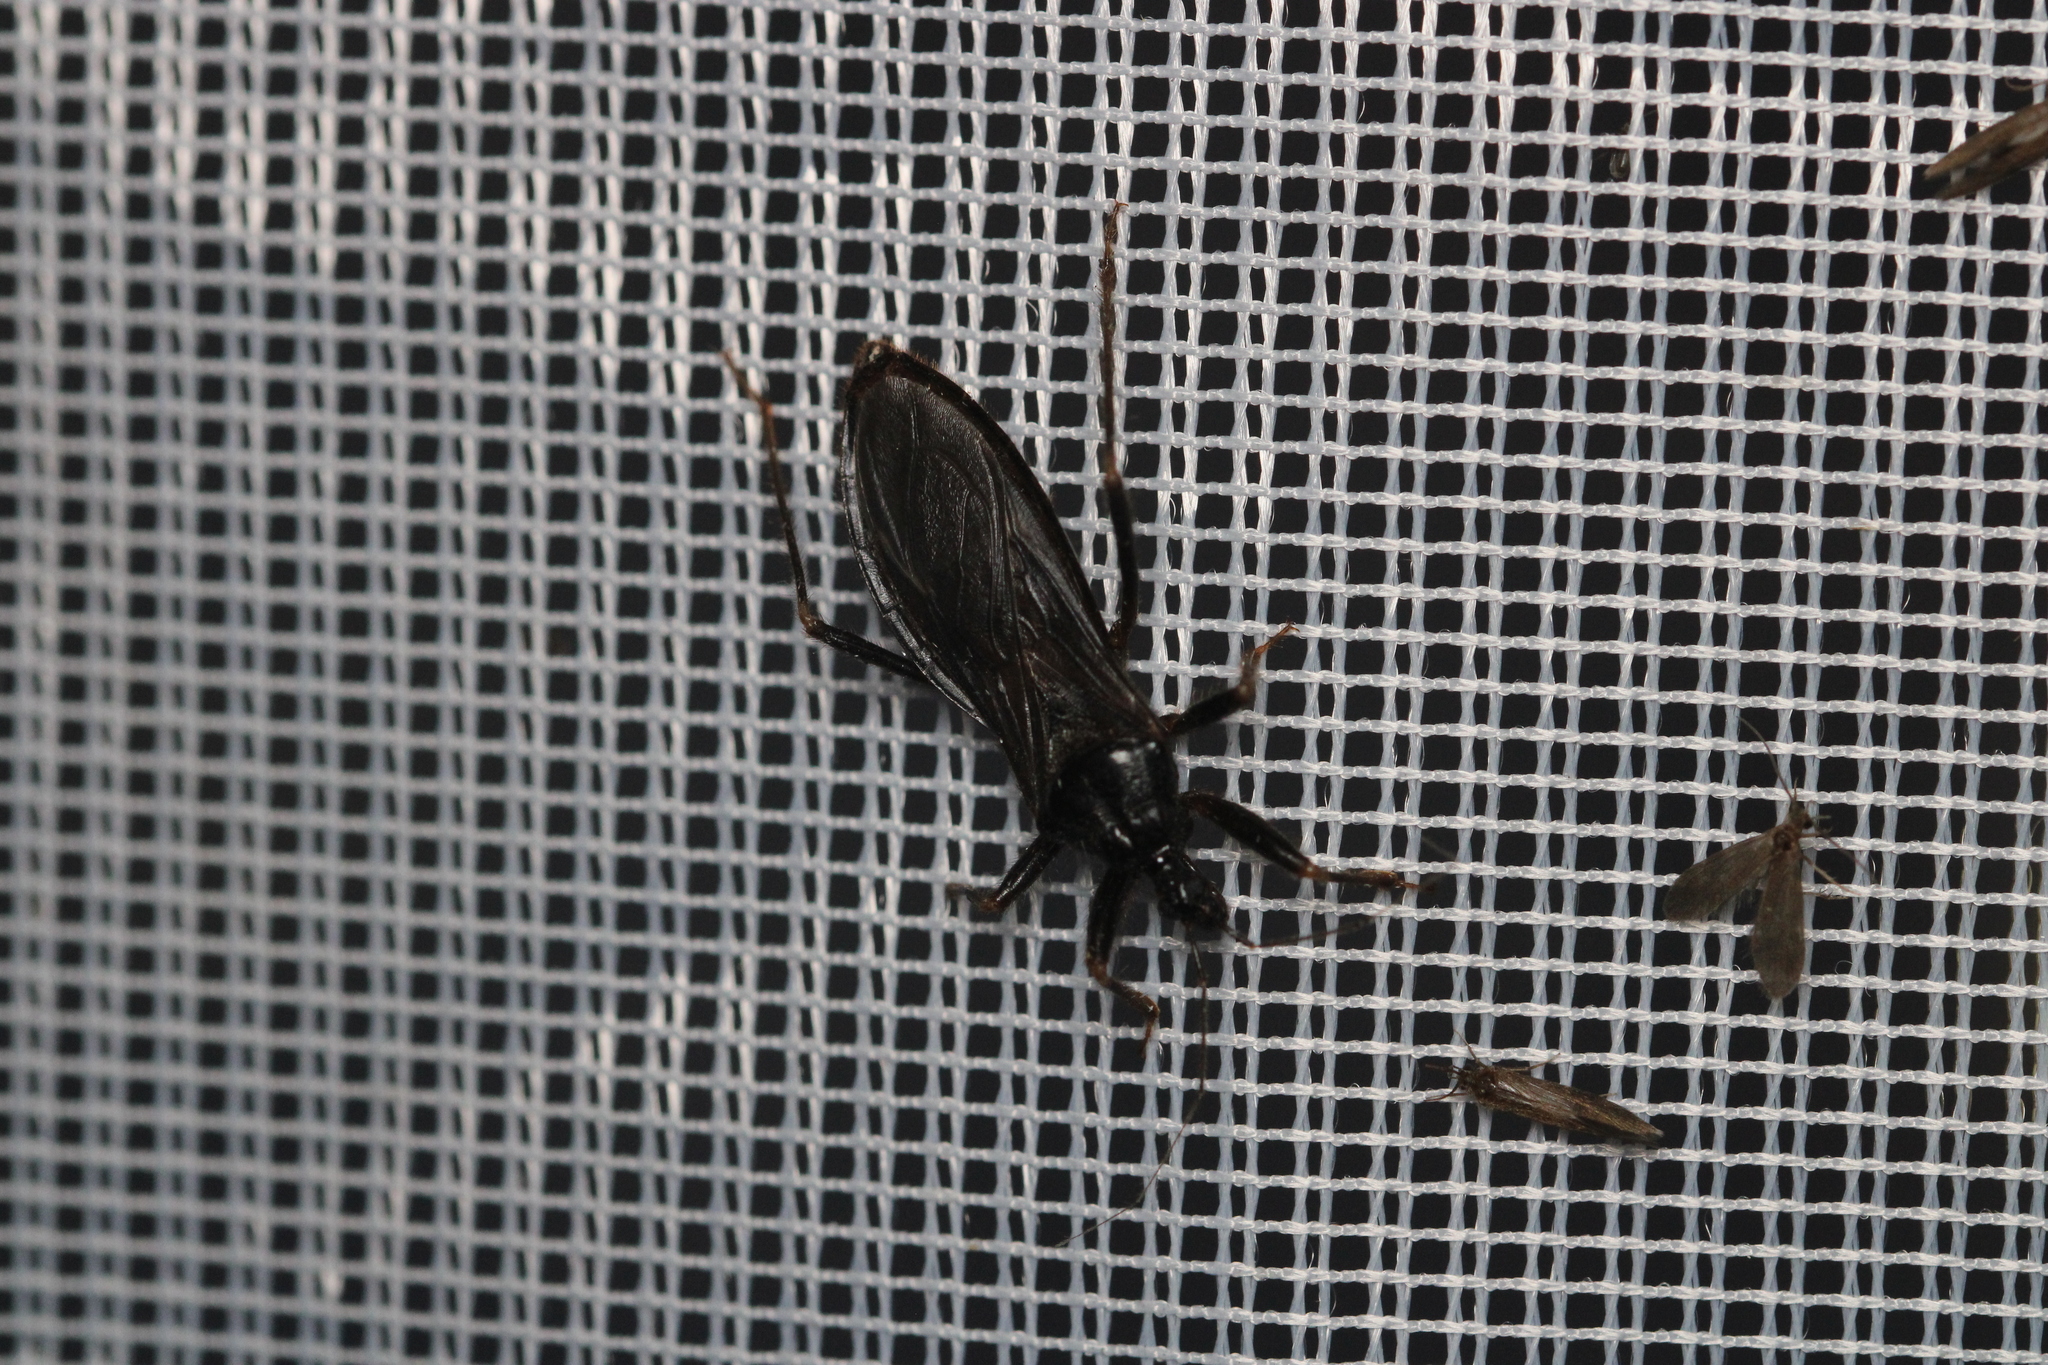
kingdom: Animalia
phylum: Arthropoda
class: Insecta
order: Hemiptera
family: Reduviidae
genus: Reduvius
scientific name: Reduvius personatus
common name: Masked hunter
